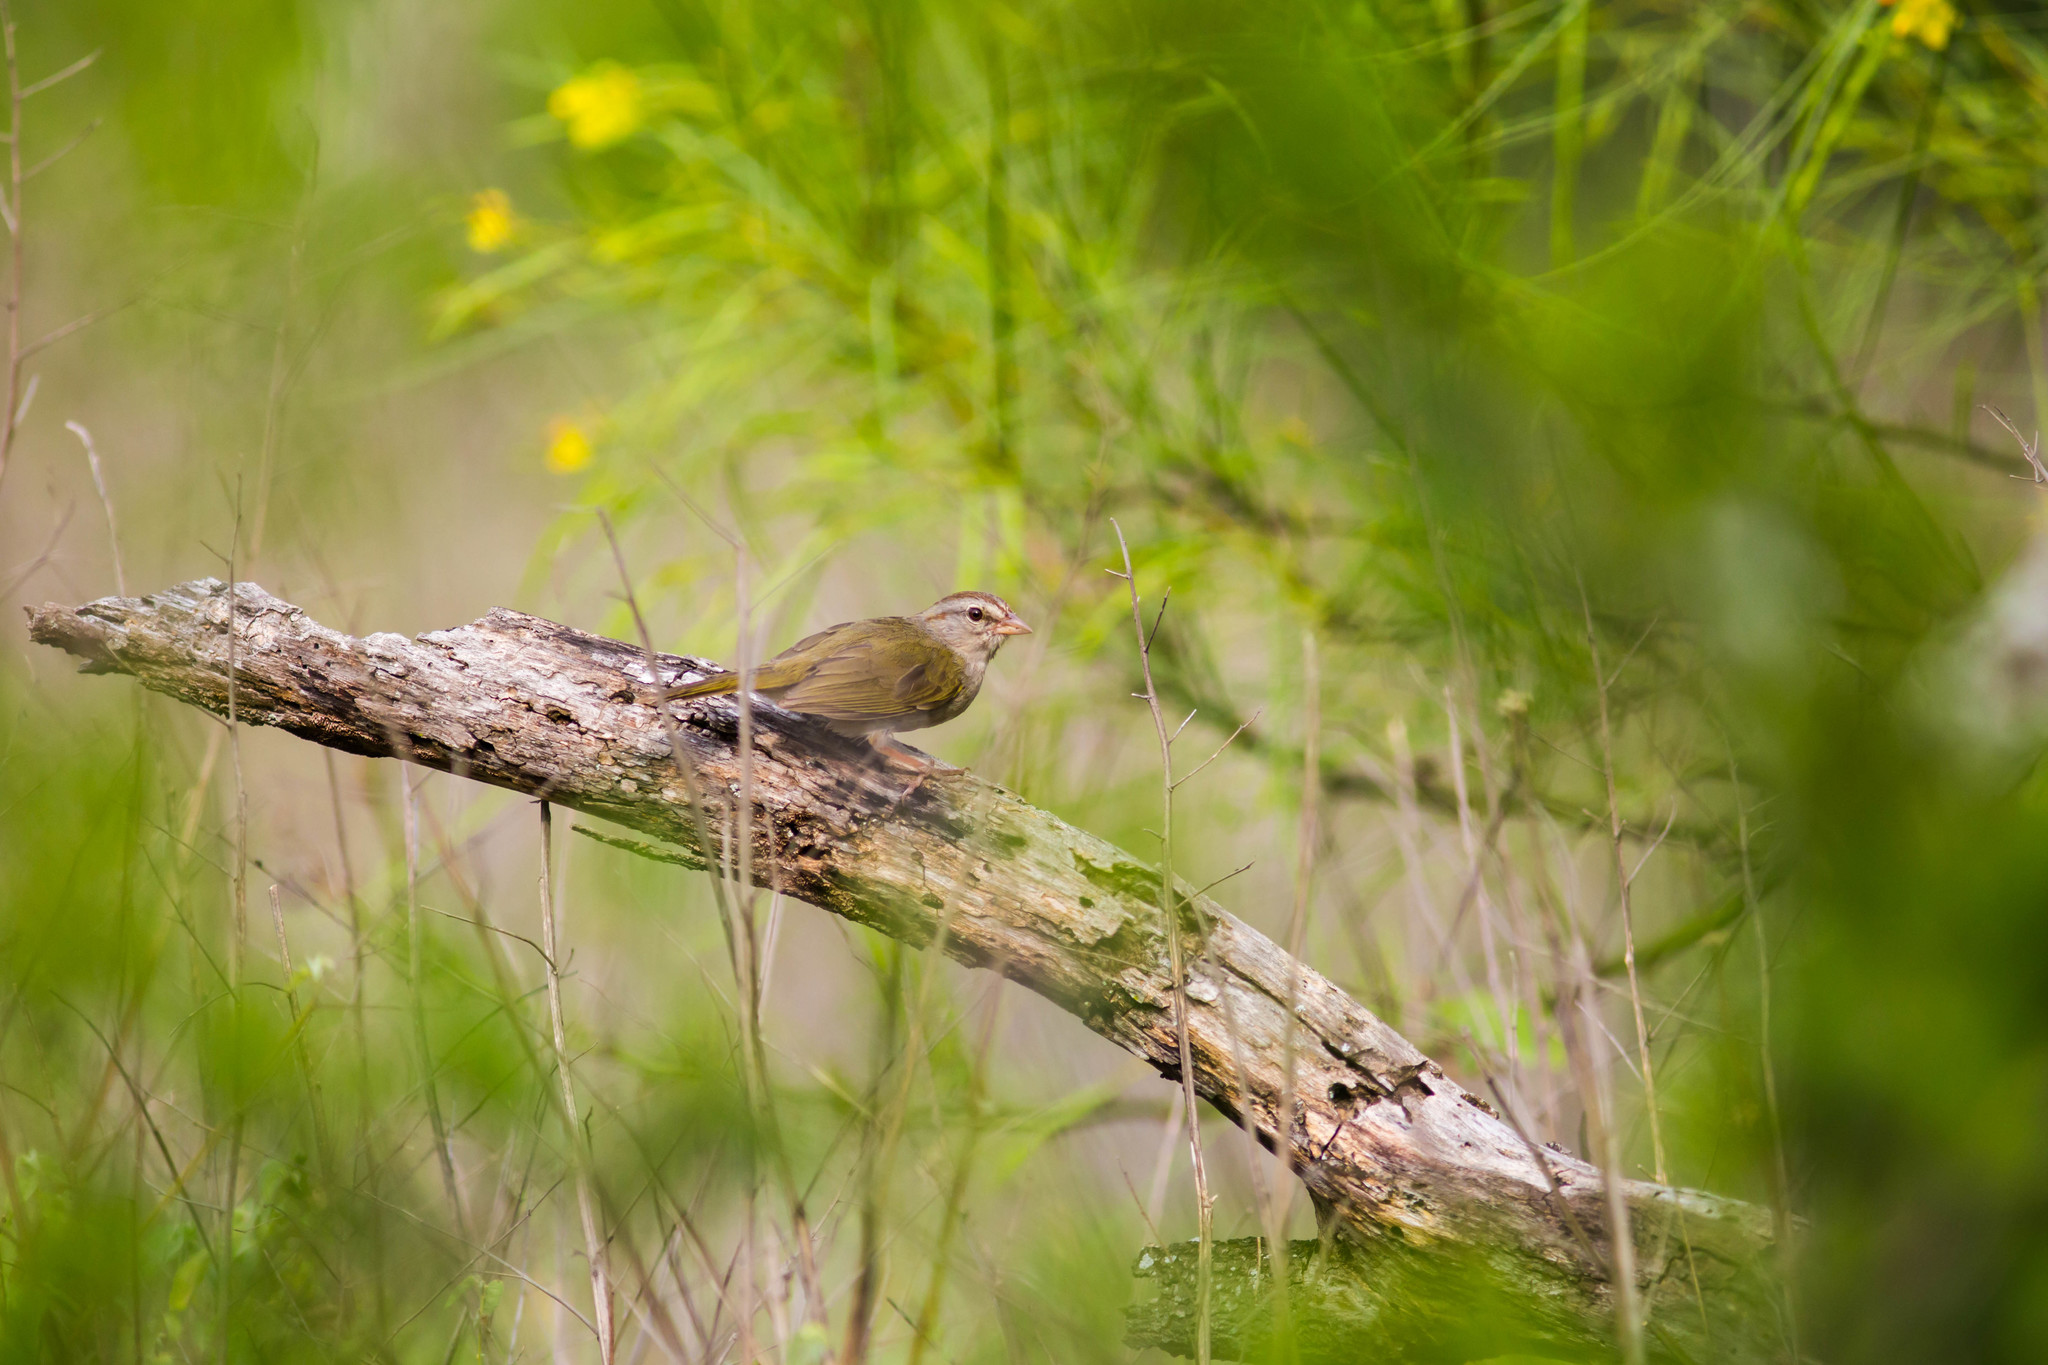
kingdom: Animalia
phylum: Chordata
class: Aves
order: Passeriformes
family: Passerellidae
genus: Arremonops
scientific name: Arremonops rufivirgatus
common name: Olive sparrow
